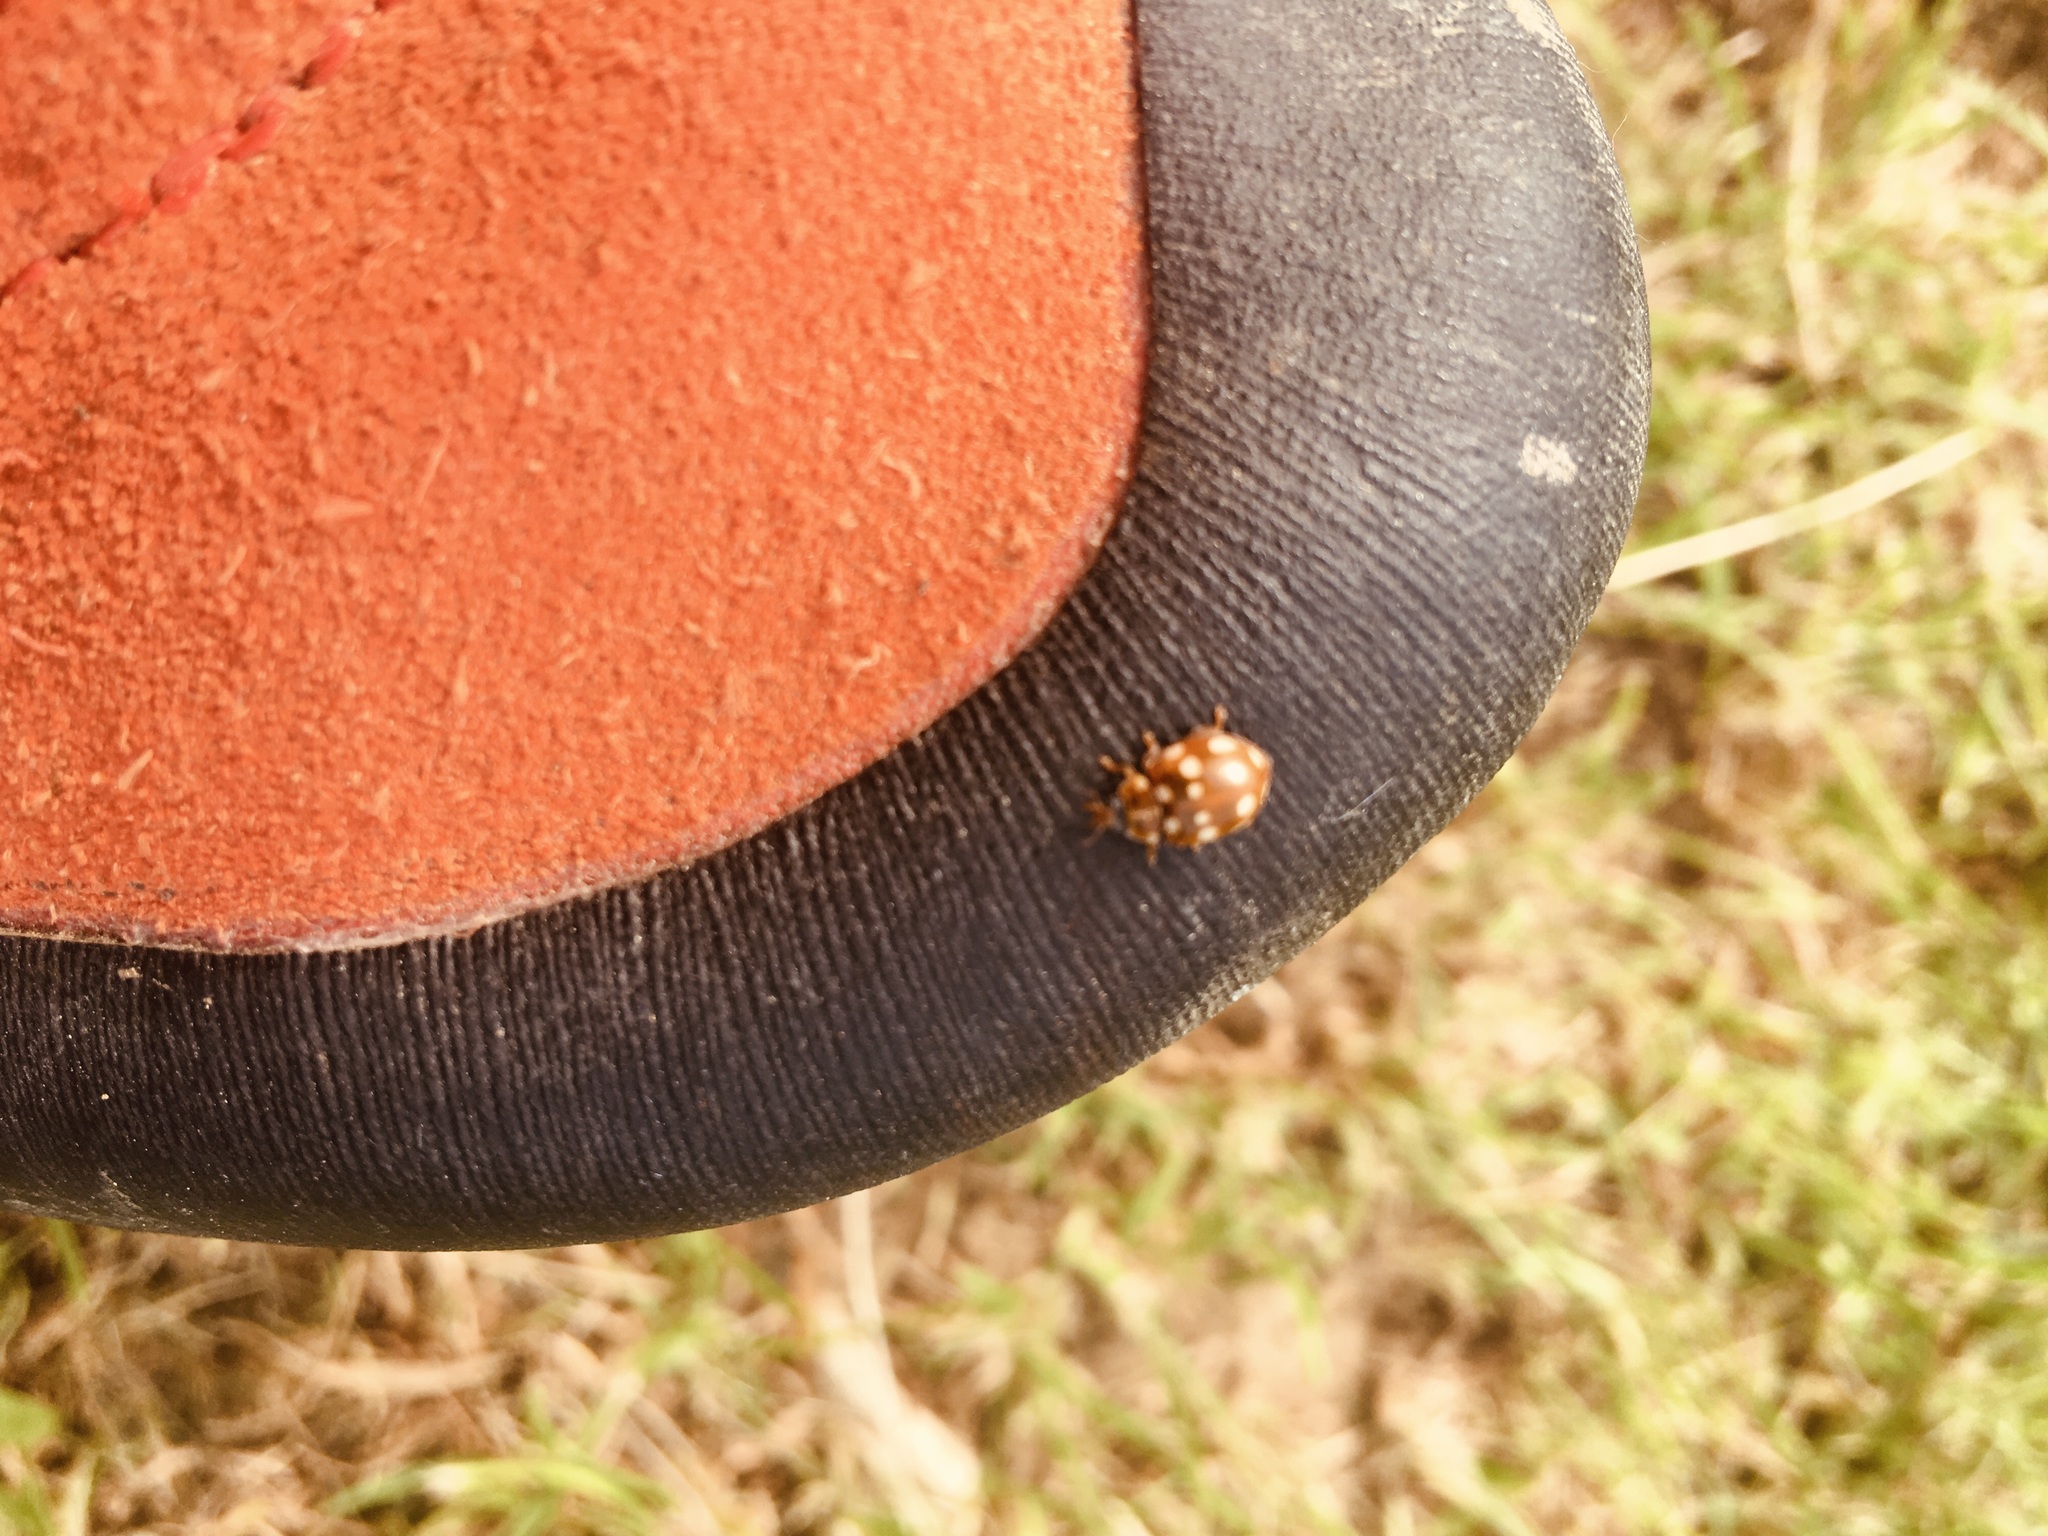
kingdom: Animalia
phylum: Arthropoda
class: Insecta
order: Coleoptera
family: Coccinellidae
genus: Calvia
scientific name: Calvia quatuordecimguttata
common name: Cream-spot ladybird
